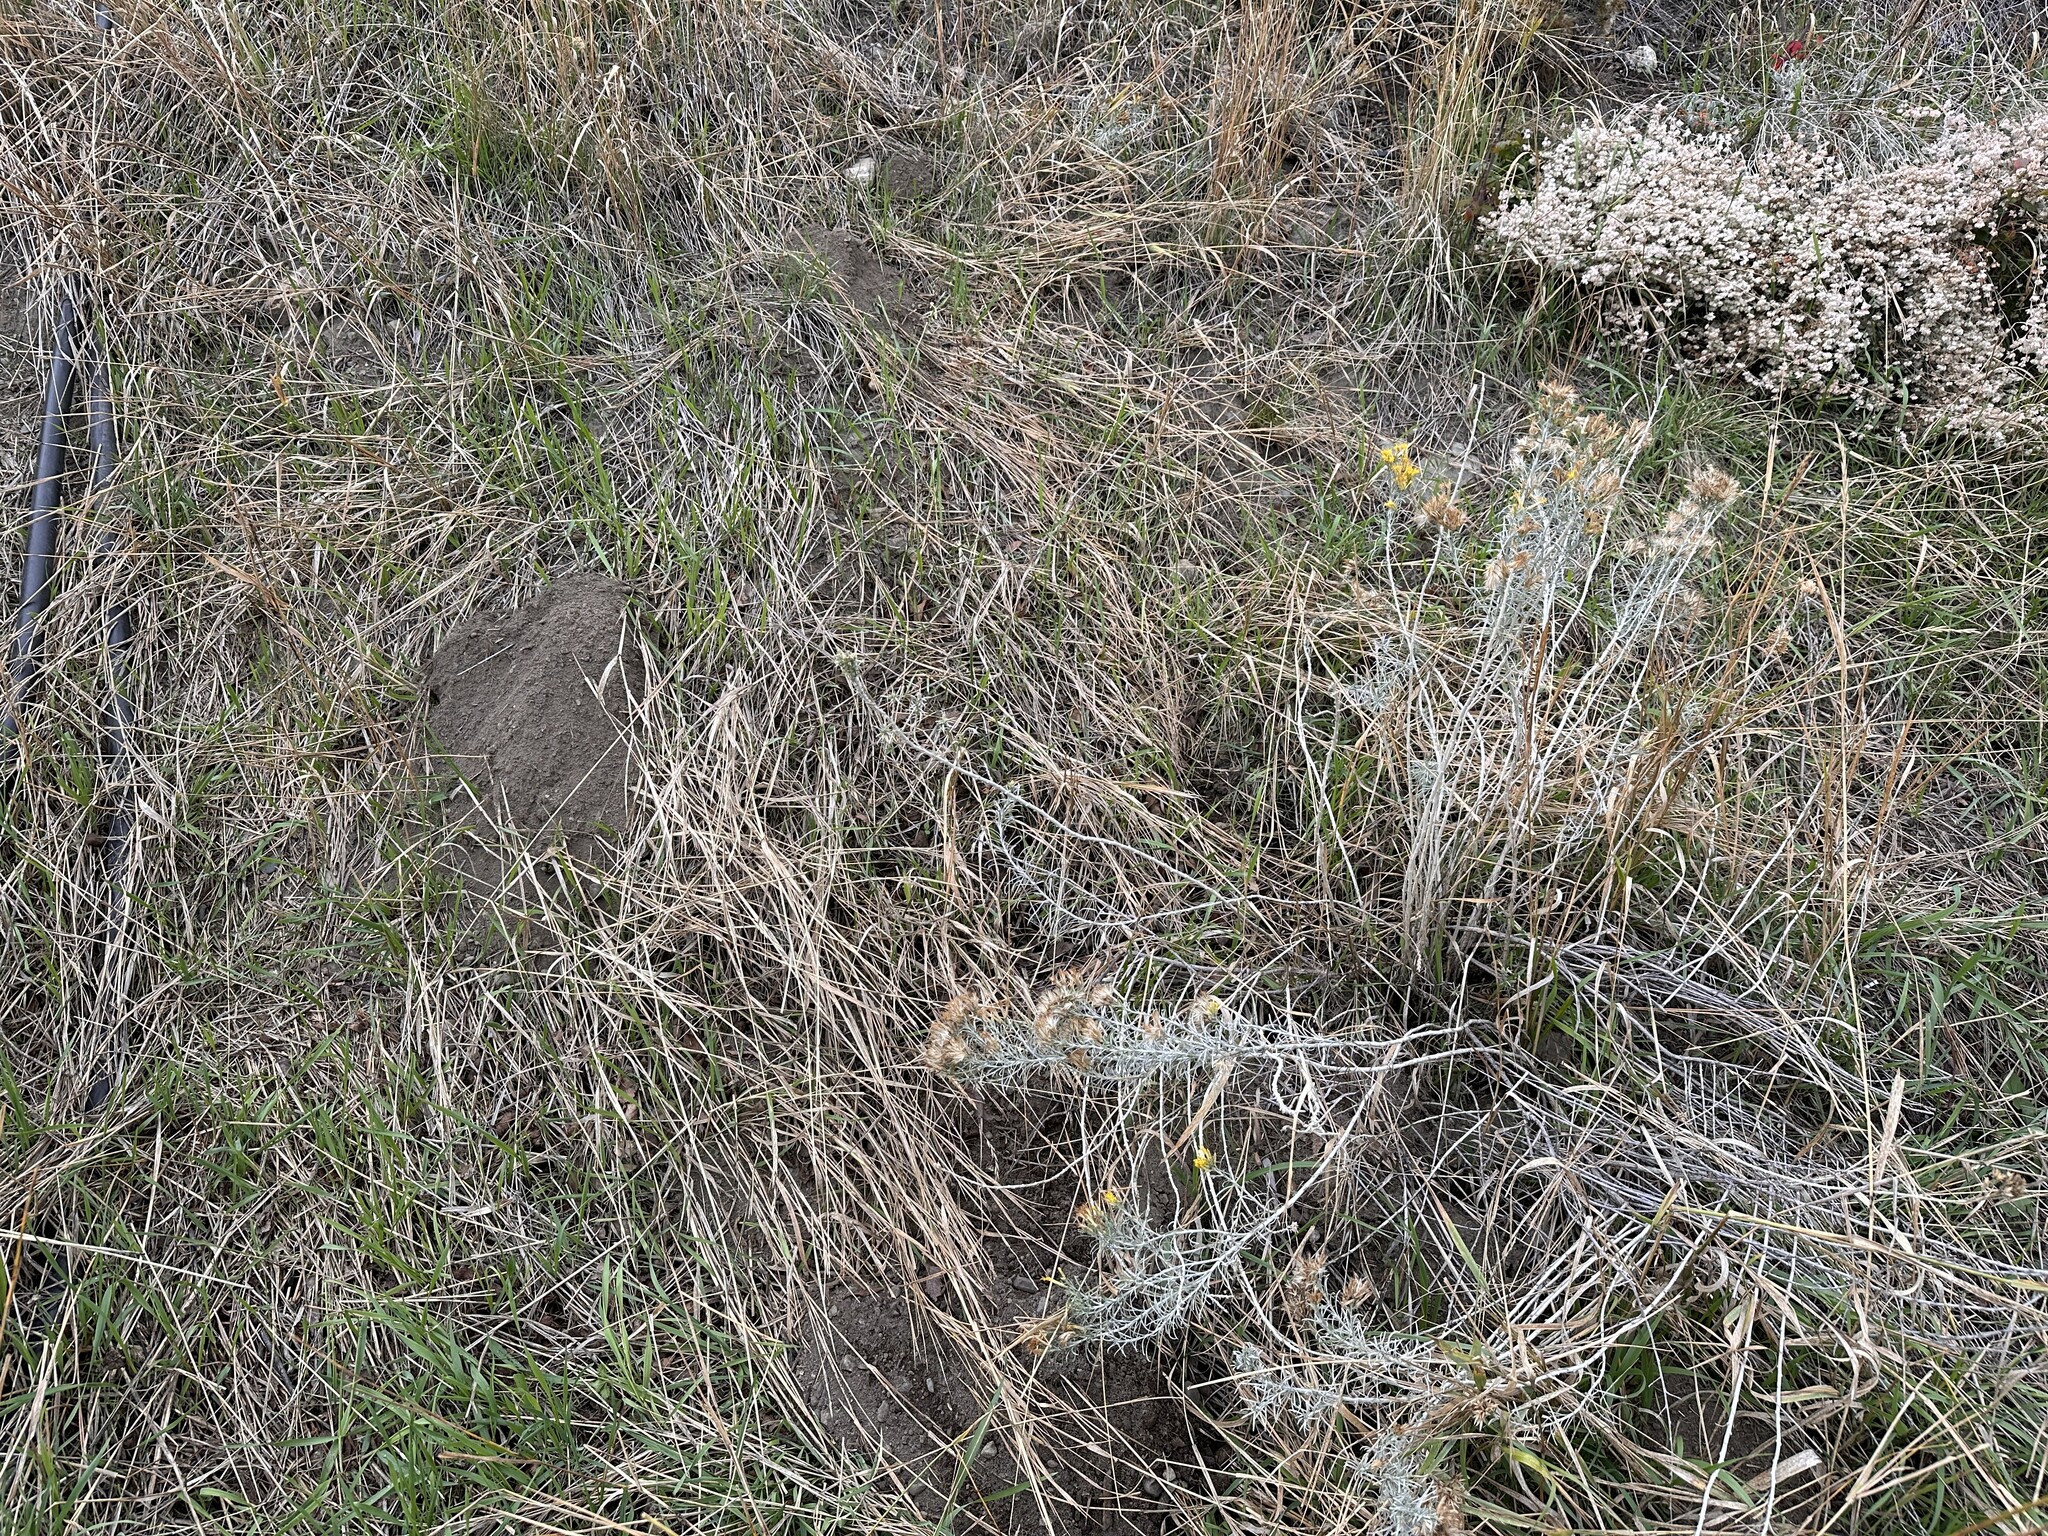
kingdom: Animalia
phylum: Chordata
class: Mammalia
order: Rodentia
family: Geomyidae
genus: Thomomys
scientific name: Thomomys talpoides
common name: Northern pocket gopher
